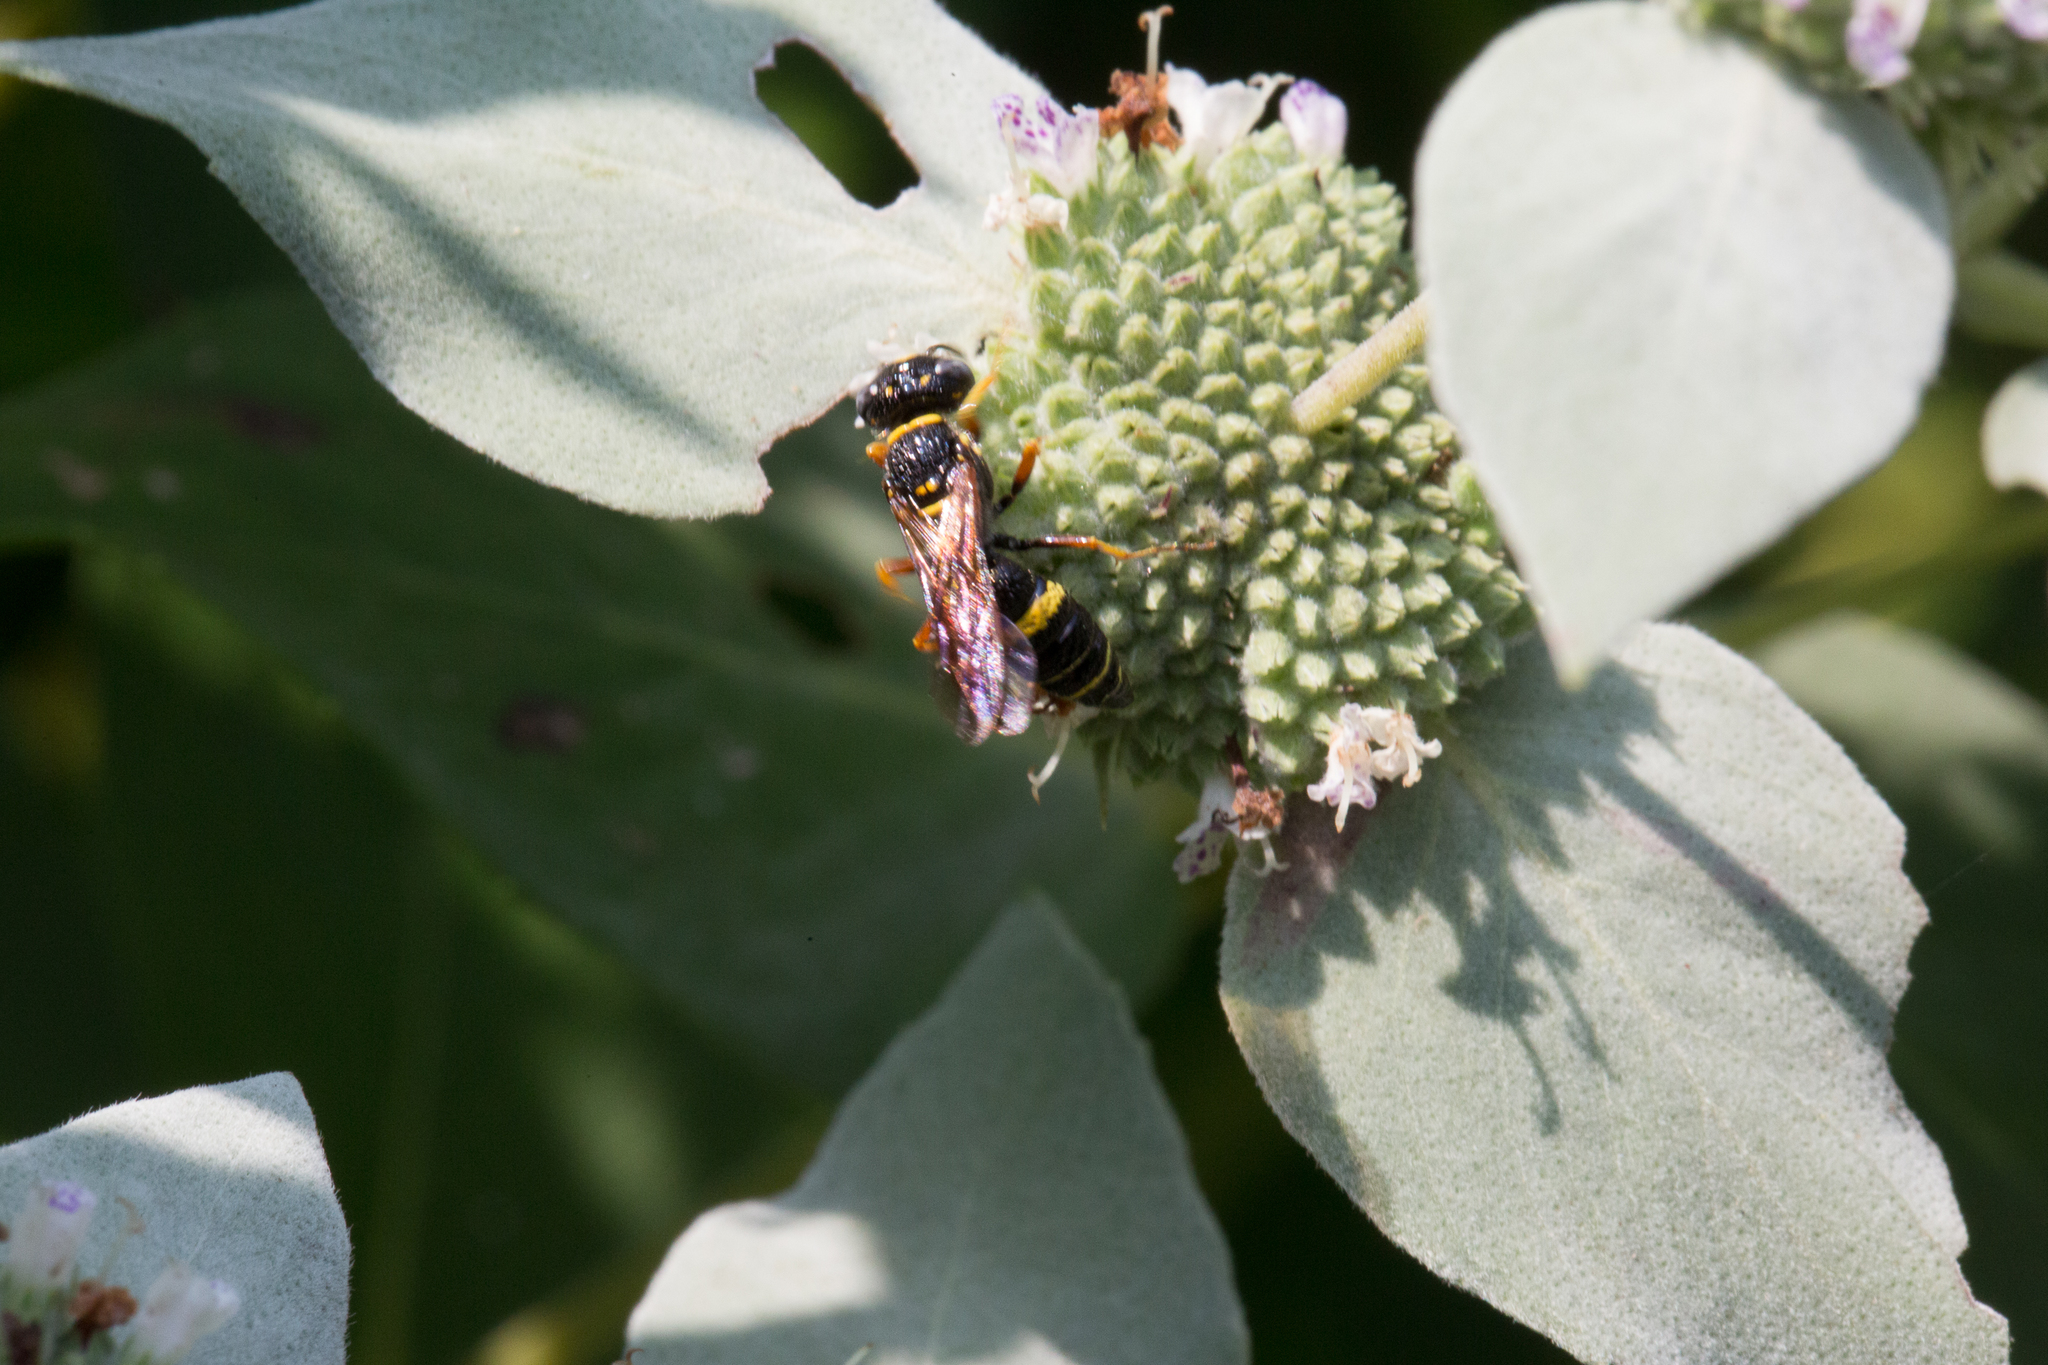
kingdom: Animalia
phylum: Arthropoda
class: Insecta
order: Hymenoptera
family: Crabronidae
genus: Philanthus
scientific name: Philanthus gibbosus
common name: Humped beewolf
